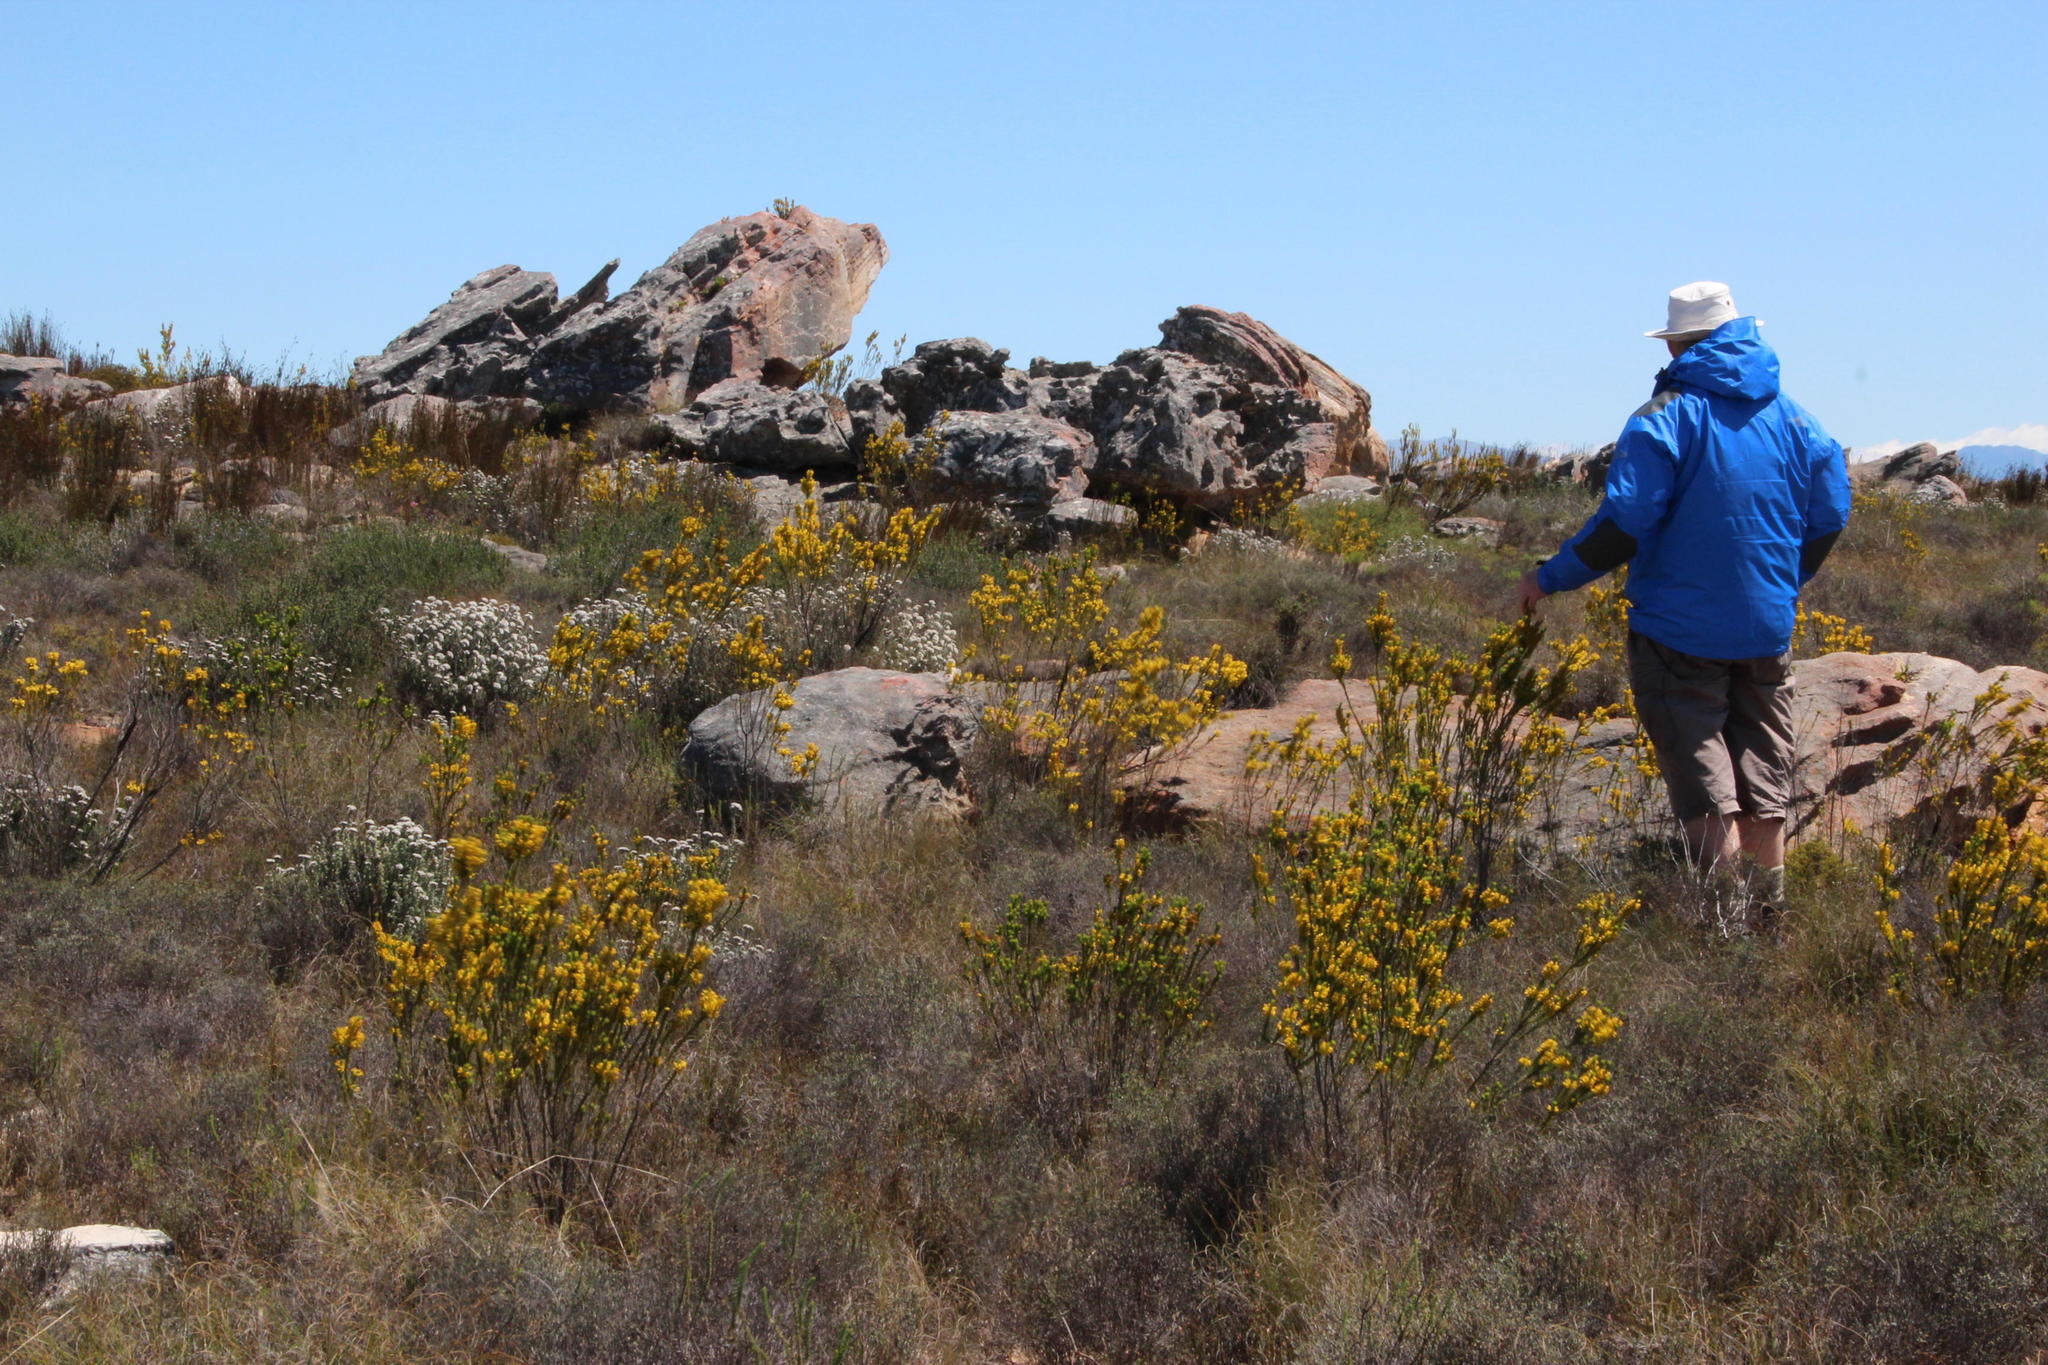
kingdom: Plantae
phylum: Tracheophyta
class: Magnoliopsida
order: Ericales
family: Ericaceae
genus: Erica
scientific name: Erica parilis
